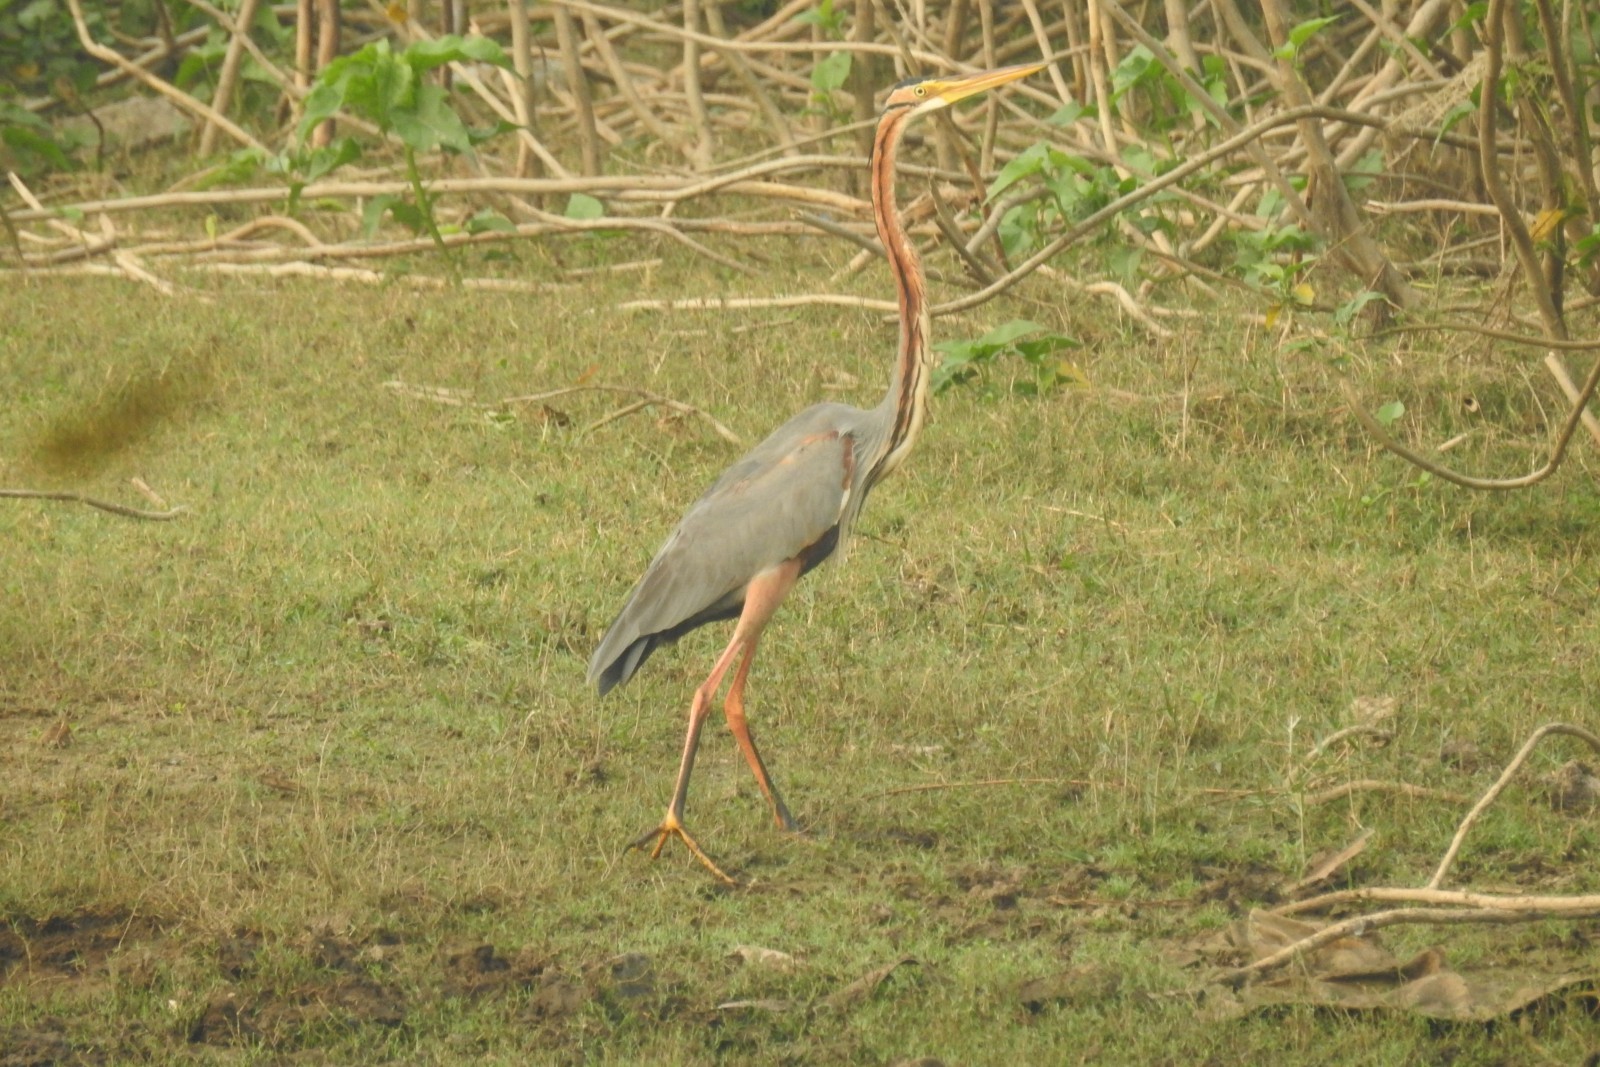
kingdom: Animalia
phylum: Chordata
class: Aves
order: Pelecaniformes
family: Ardeidae
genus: Ardea
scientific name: Ardea purpurea
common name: Purple heron
